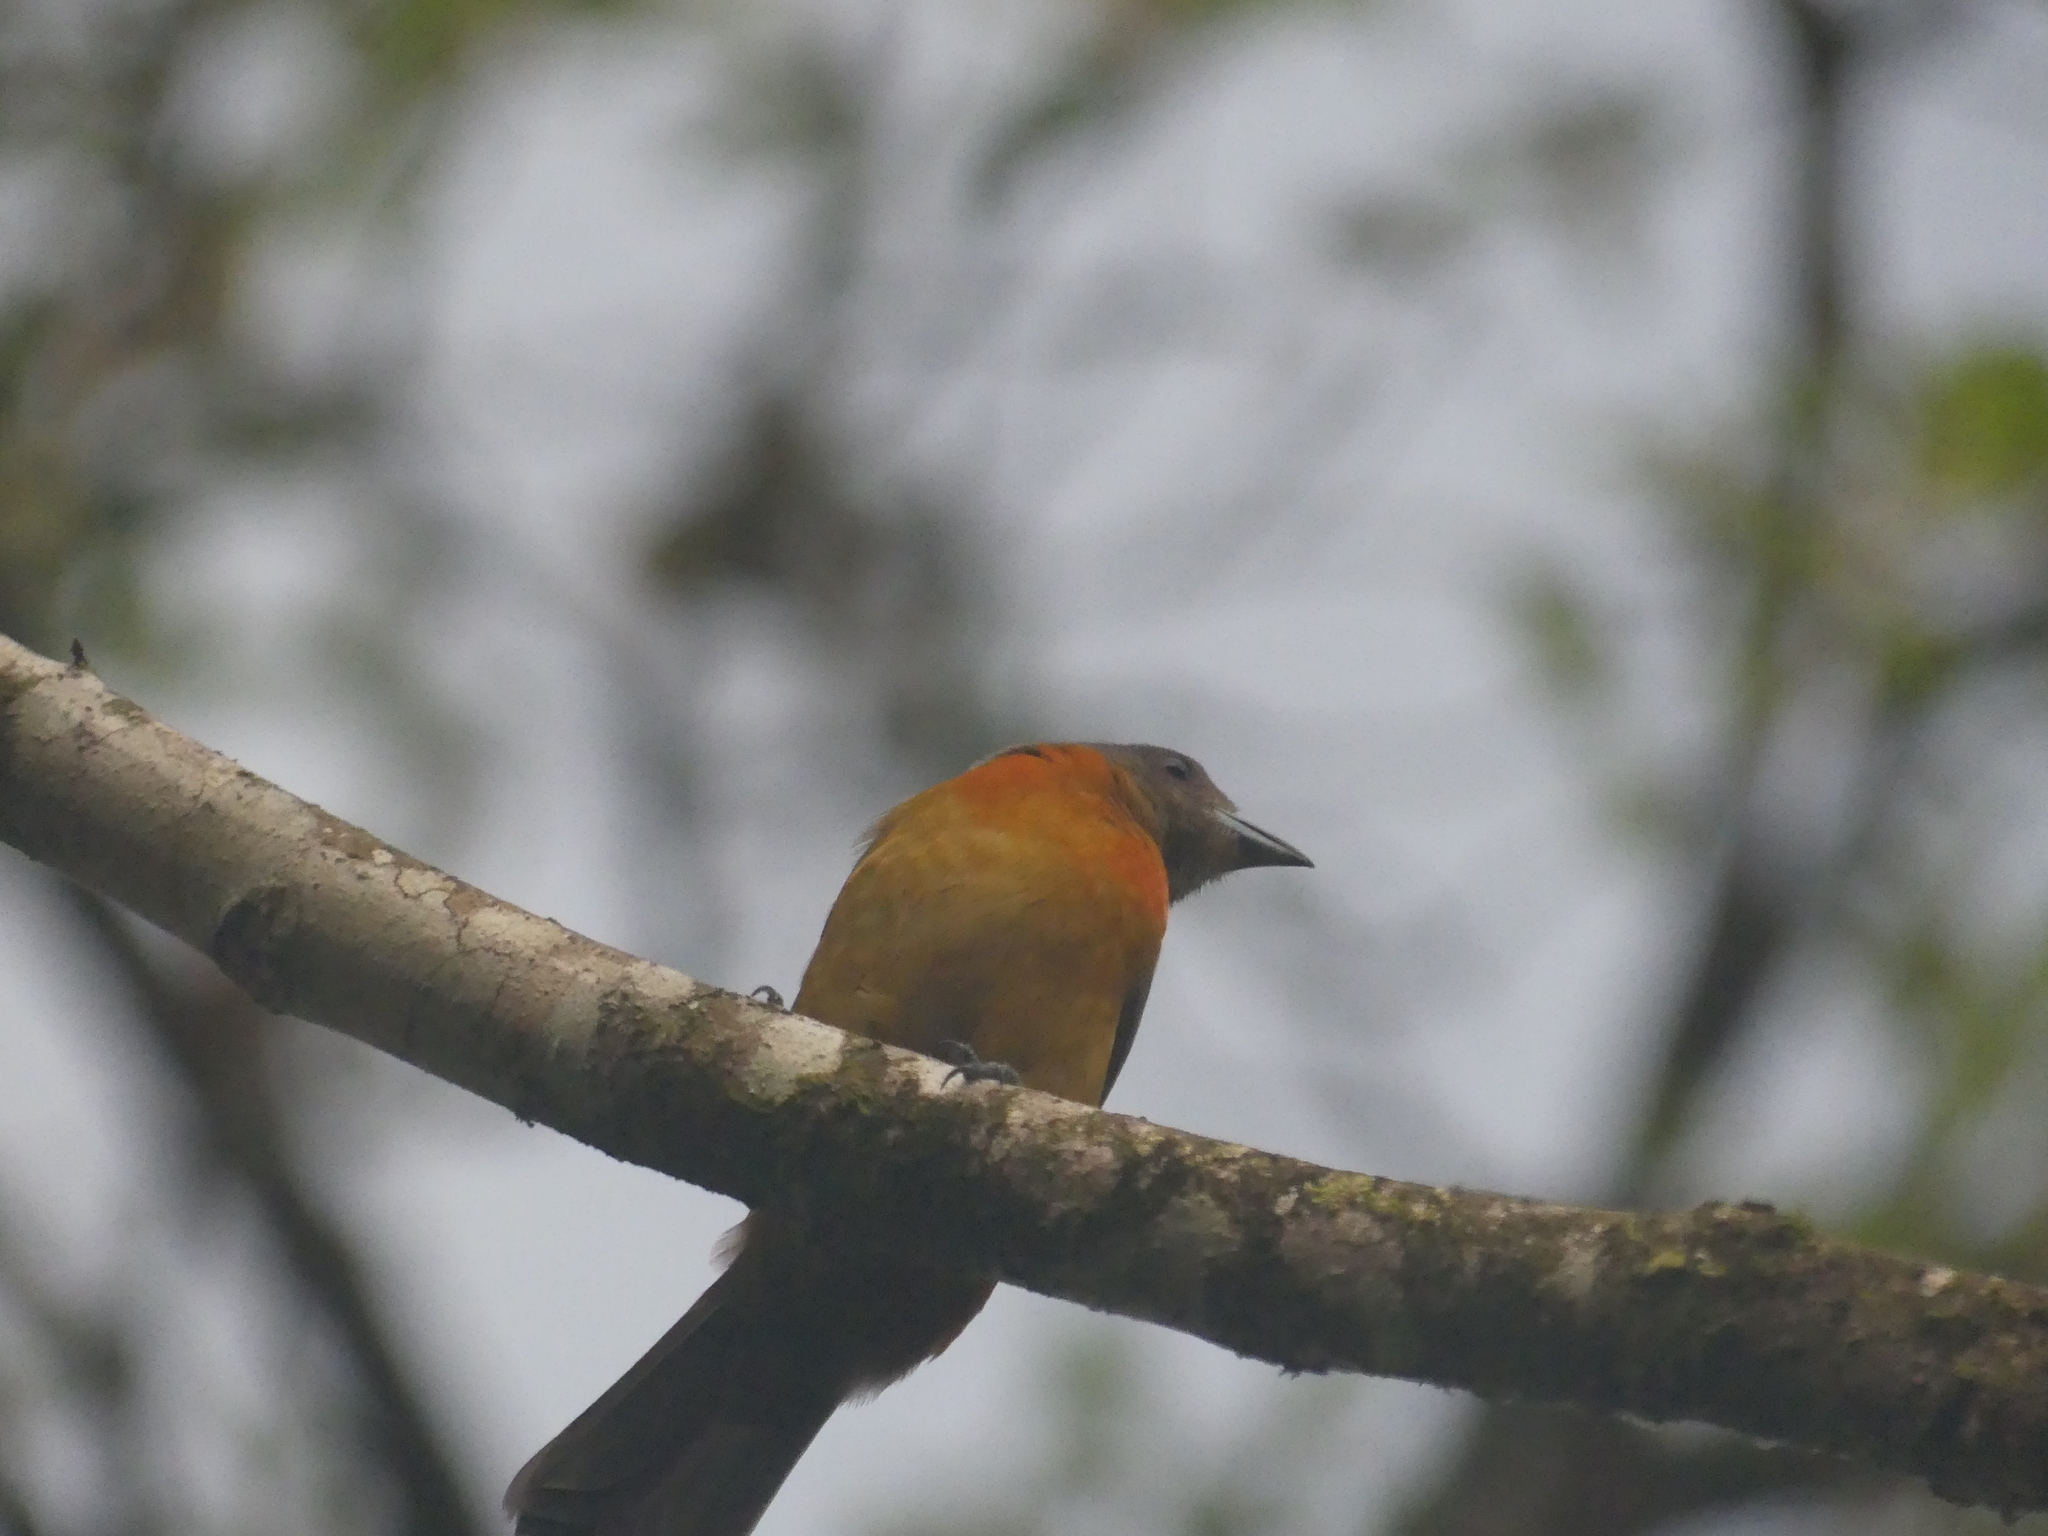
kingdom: Animalia
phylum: Chordata
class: Aves
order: Passeriformes
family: Thraupidae
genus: Ramphocelus
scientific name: Ramphocelus passerinii
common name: Passerini's tanager
